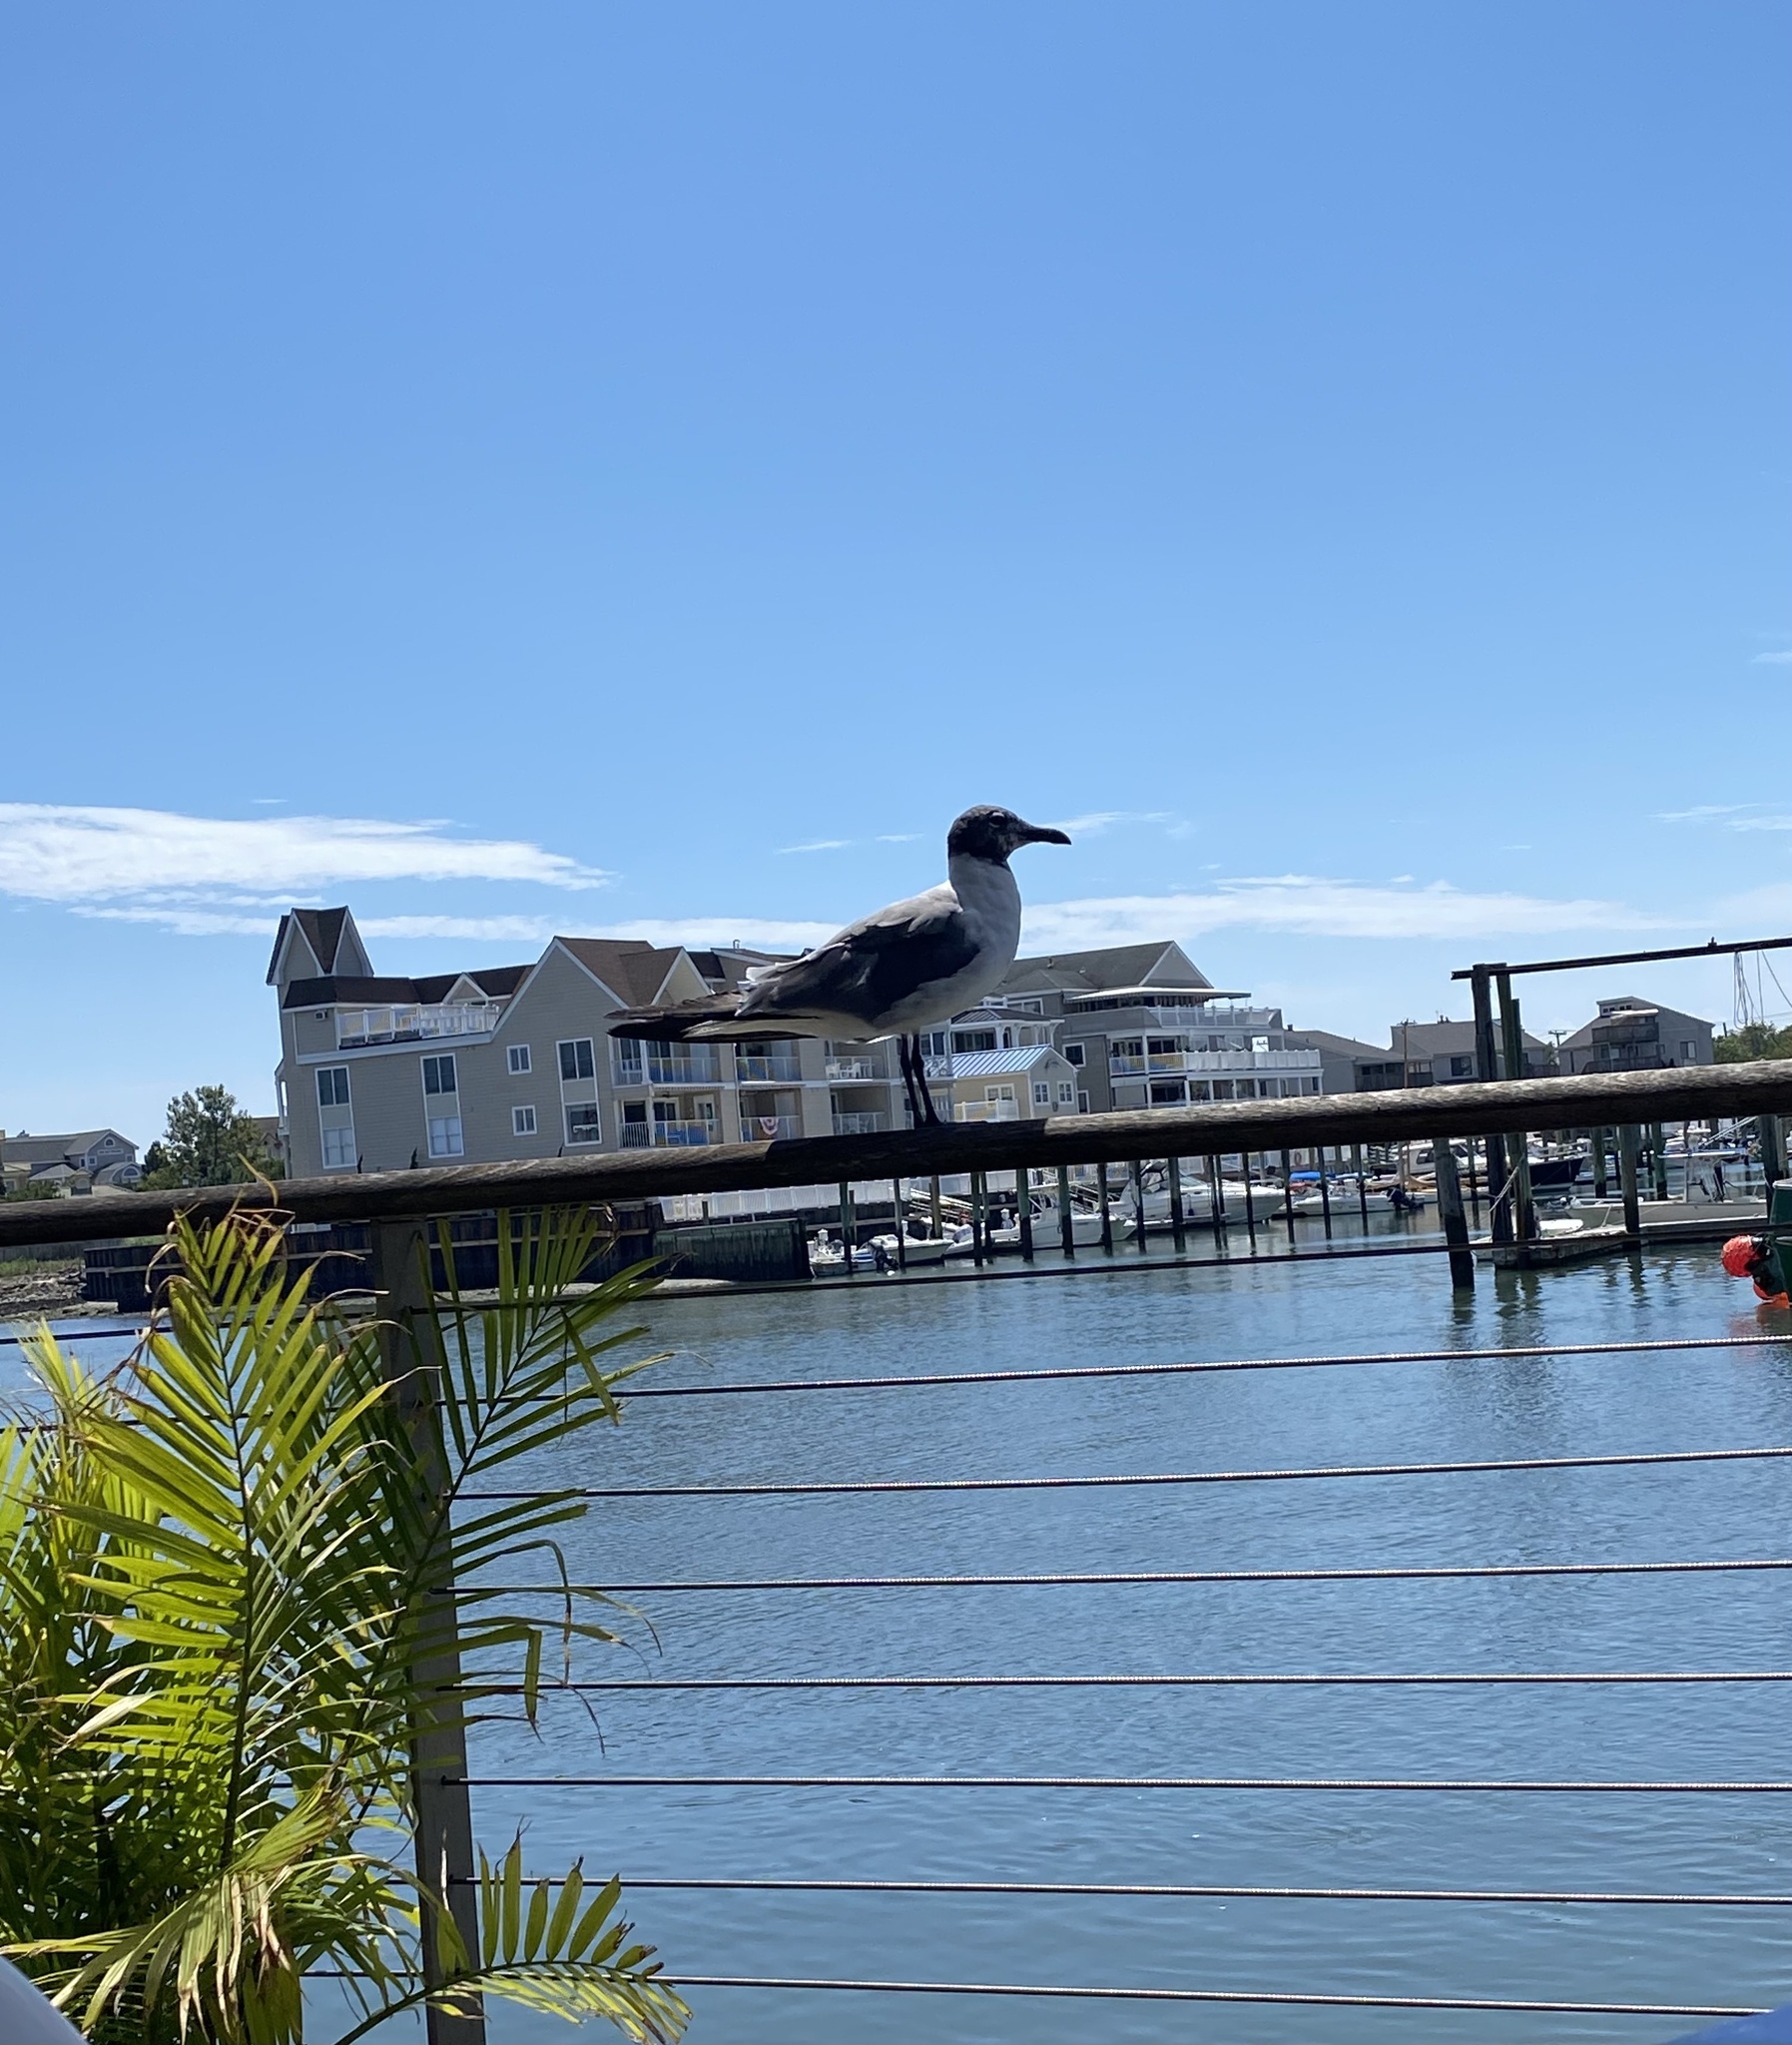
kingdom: Animalia
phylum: Chordata
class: Aves
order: Charadriiformes
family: Laridae
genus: Leucophaeus
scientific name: Leucophaeus atricilla
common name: Laughing gull
